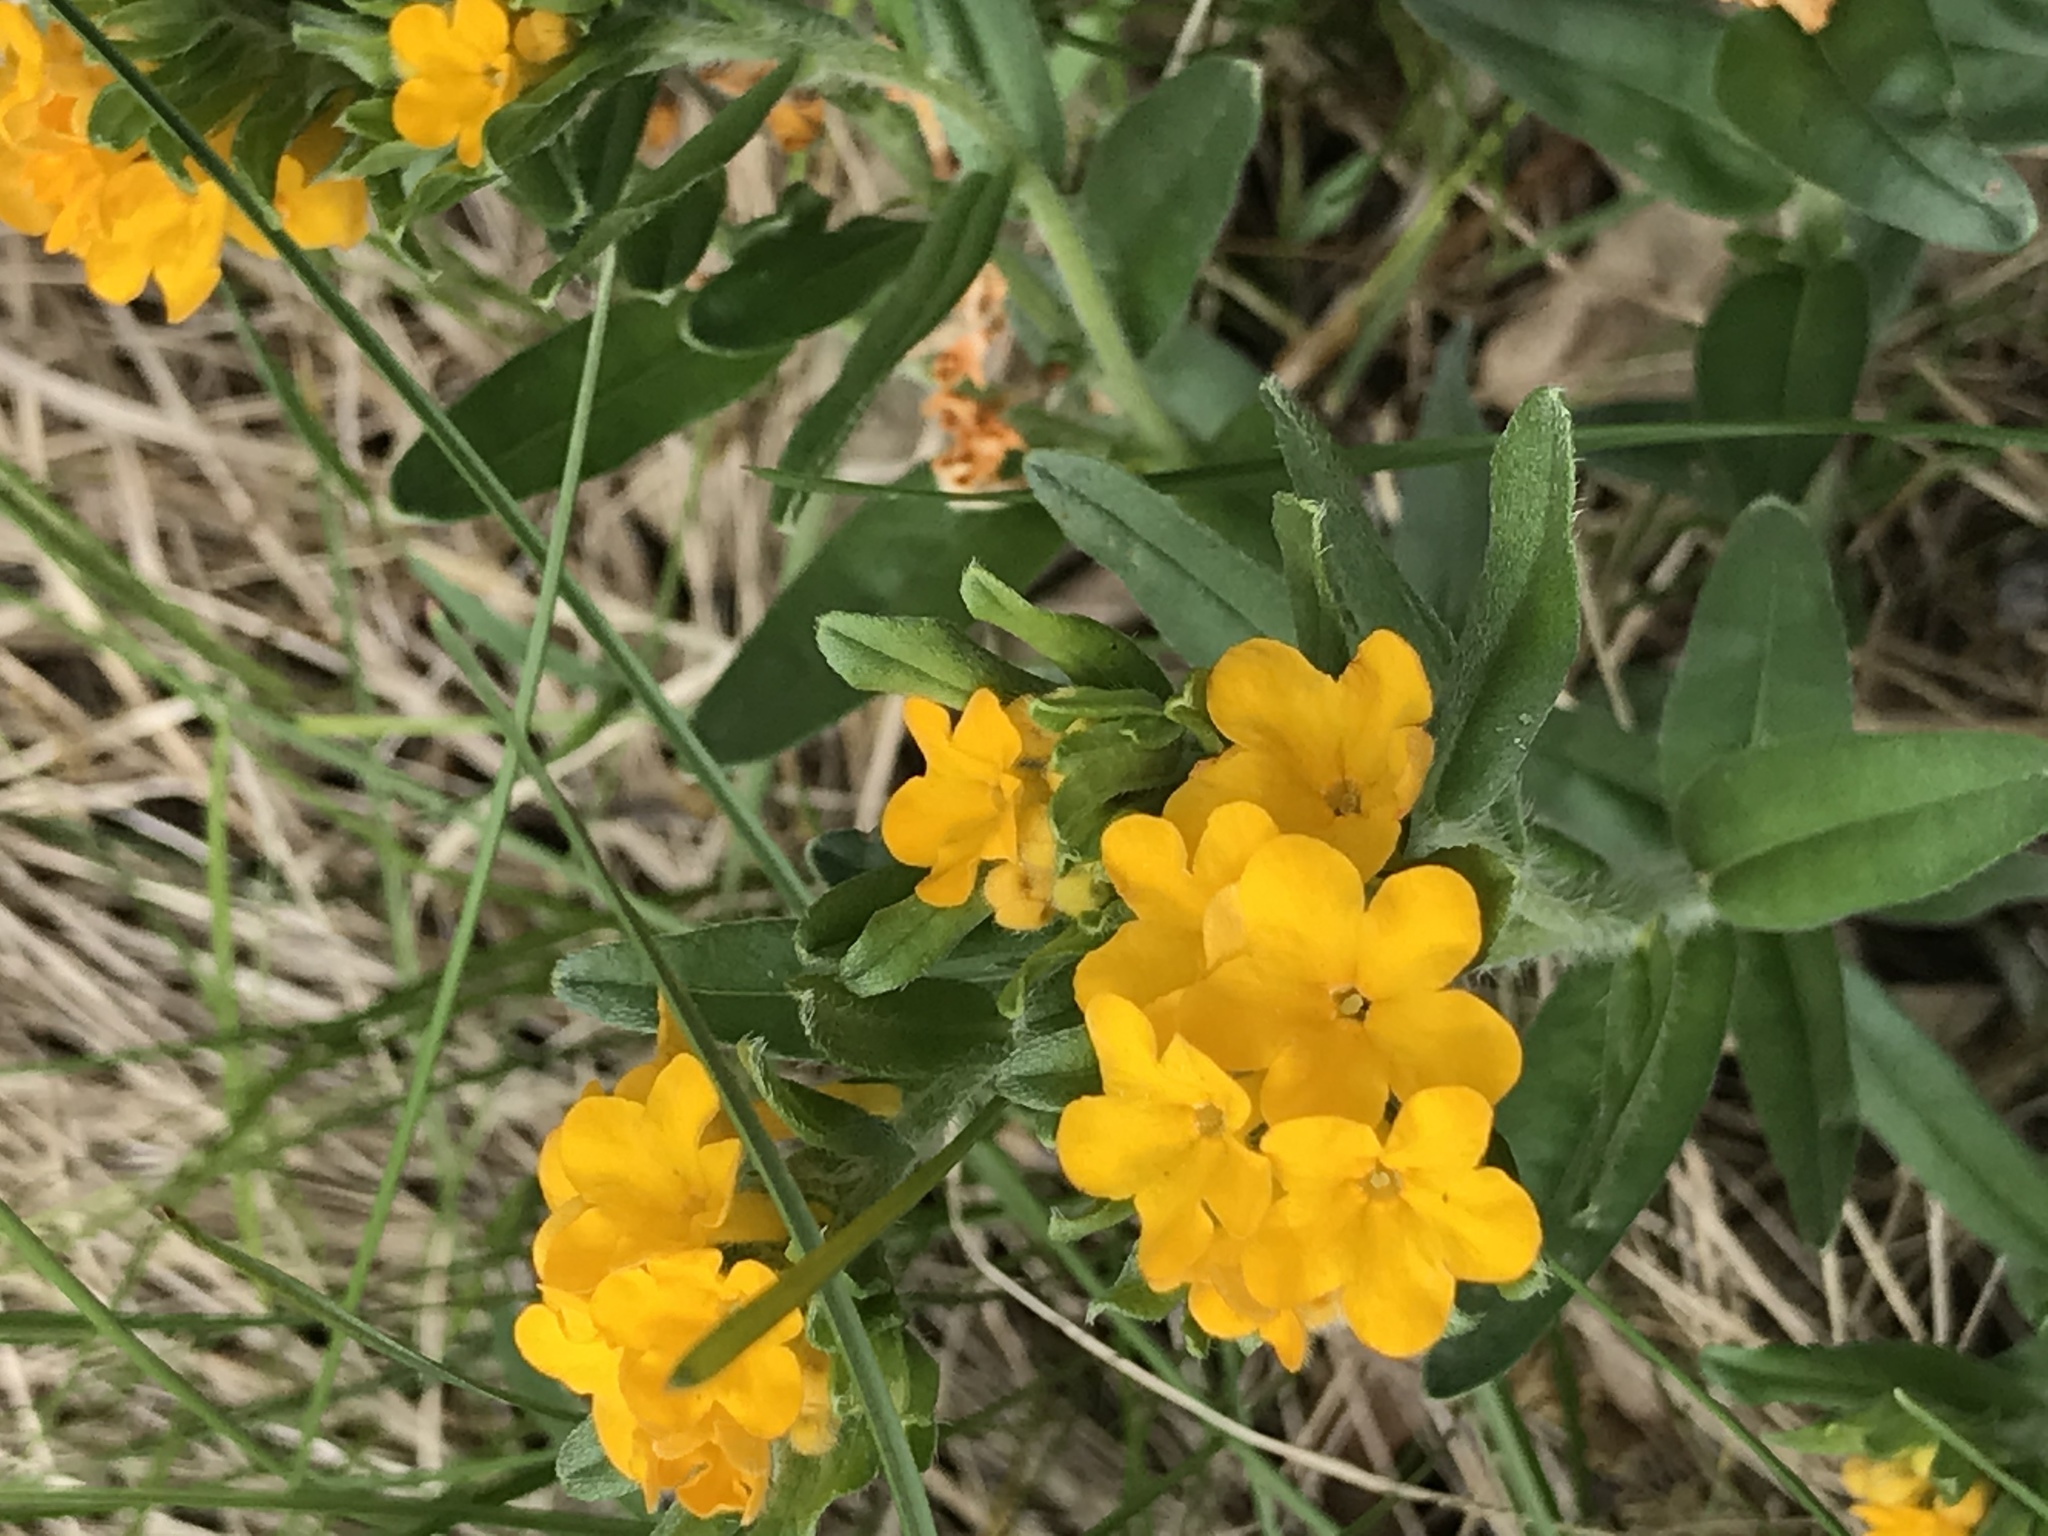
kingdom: Plantae
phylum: Tracheophyta
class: Magnoliopsida
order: Boraginales
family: Boraginaceae
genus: Lithospermum
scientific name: Lithospermum canescens
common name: Hoary puccoon
